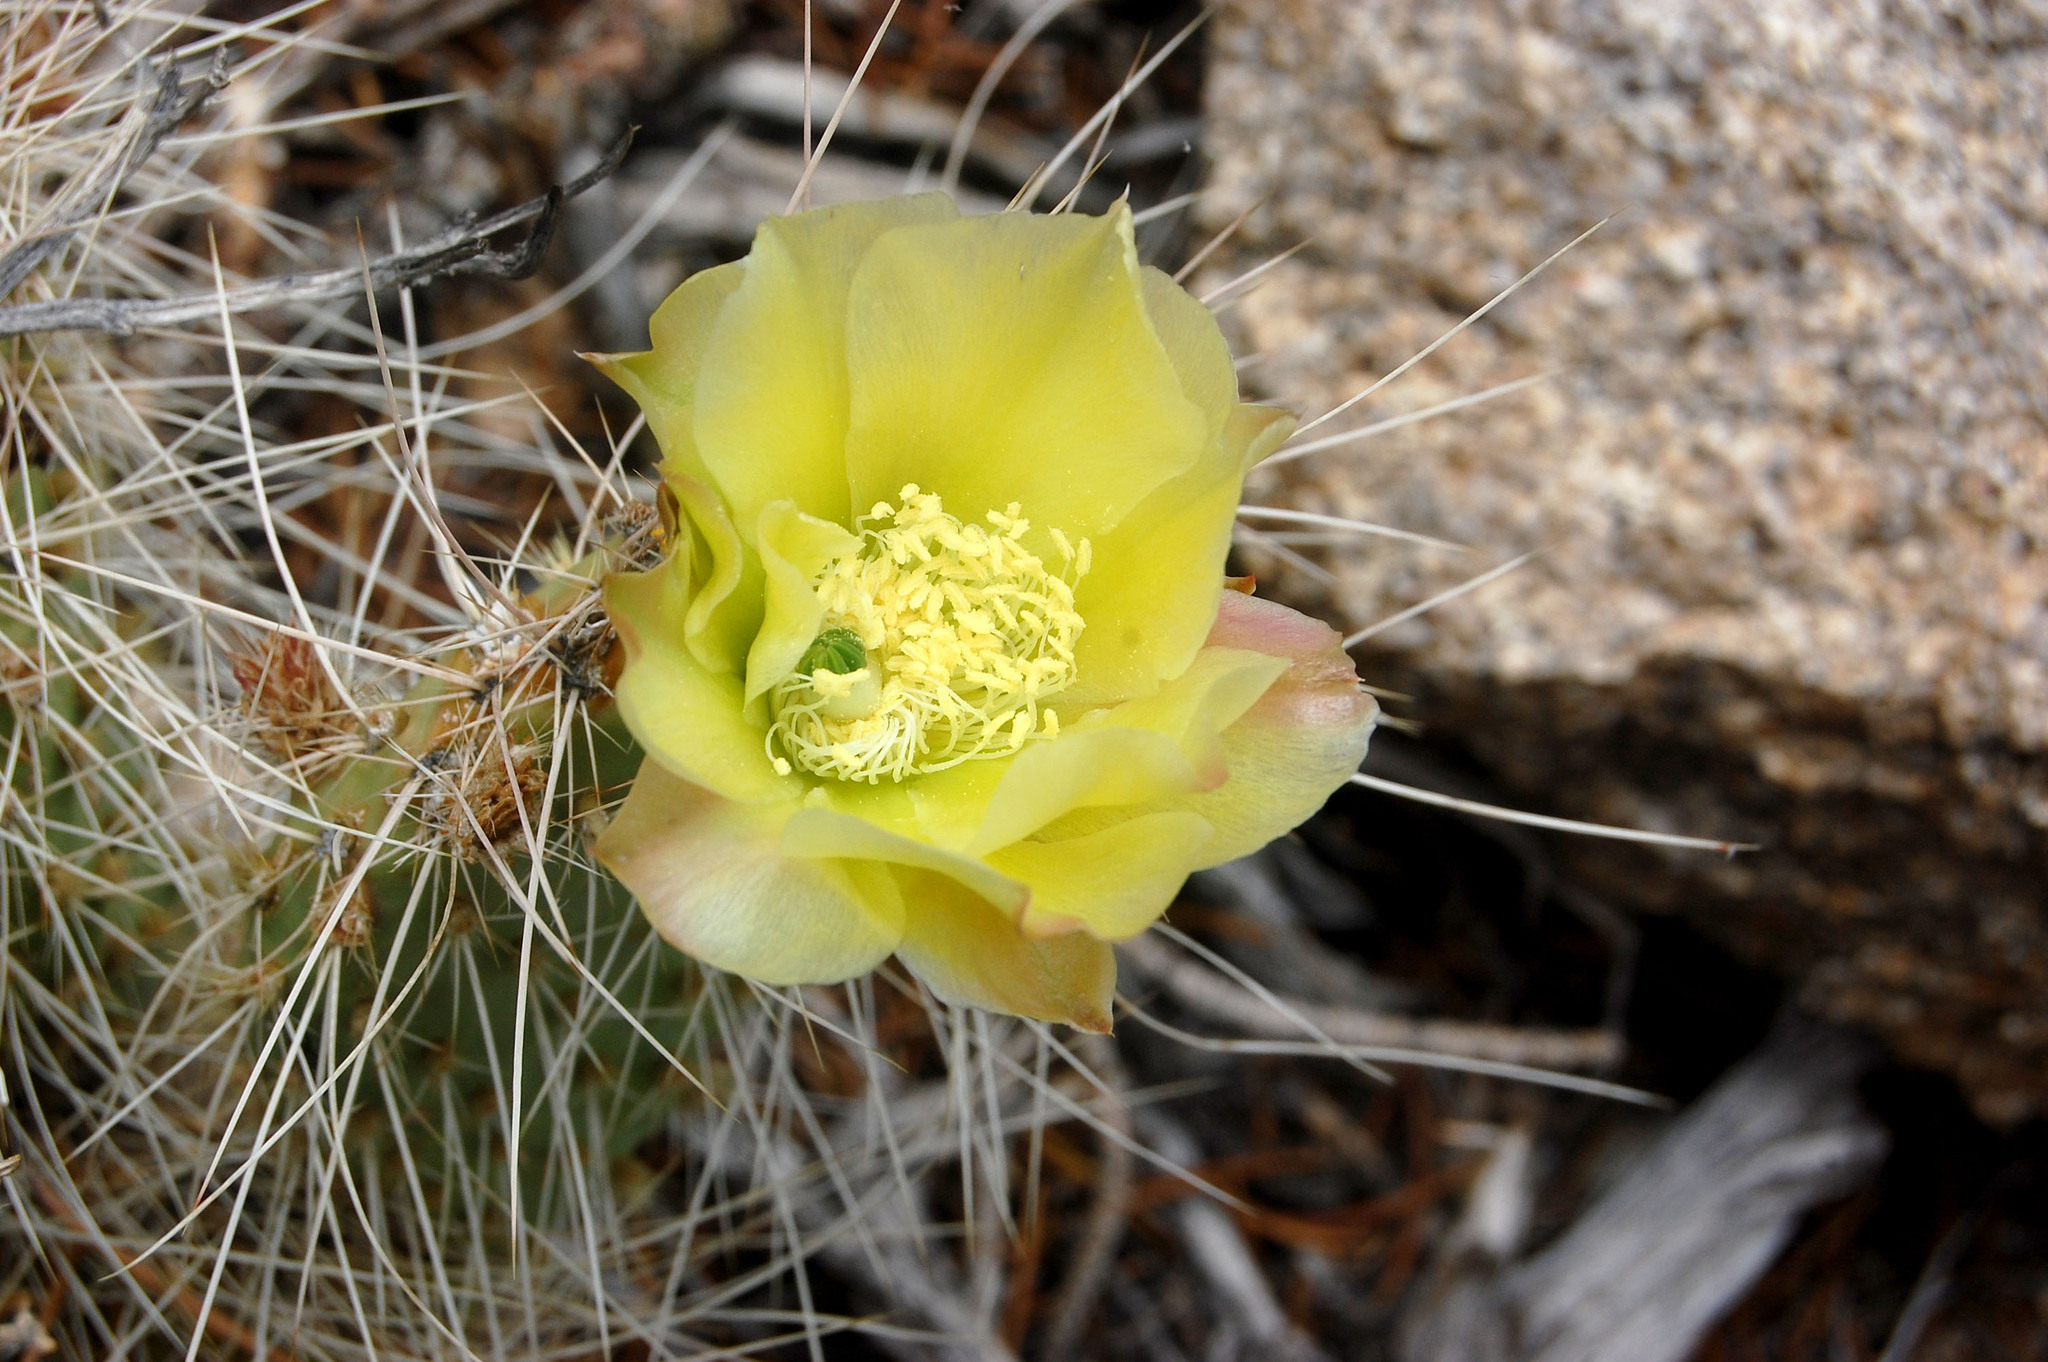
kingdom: Plantae
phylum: Tracheophyta
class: Magnoliopsida
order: Caryophyllales
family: Cactaceae
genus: Opuntia
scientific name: Opuntia polyacantha
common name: Plains prickly-pear
